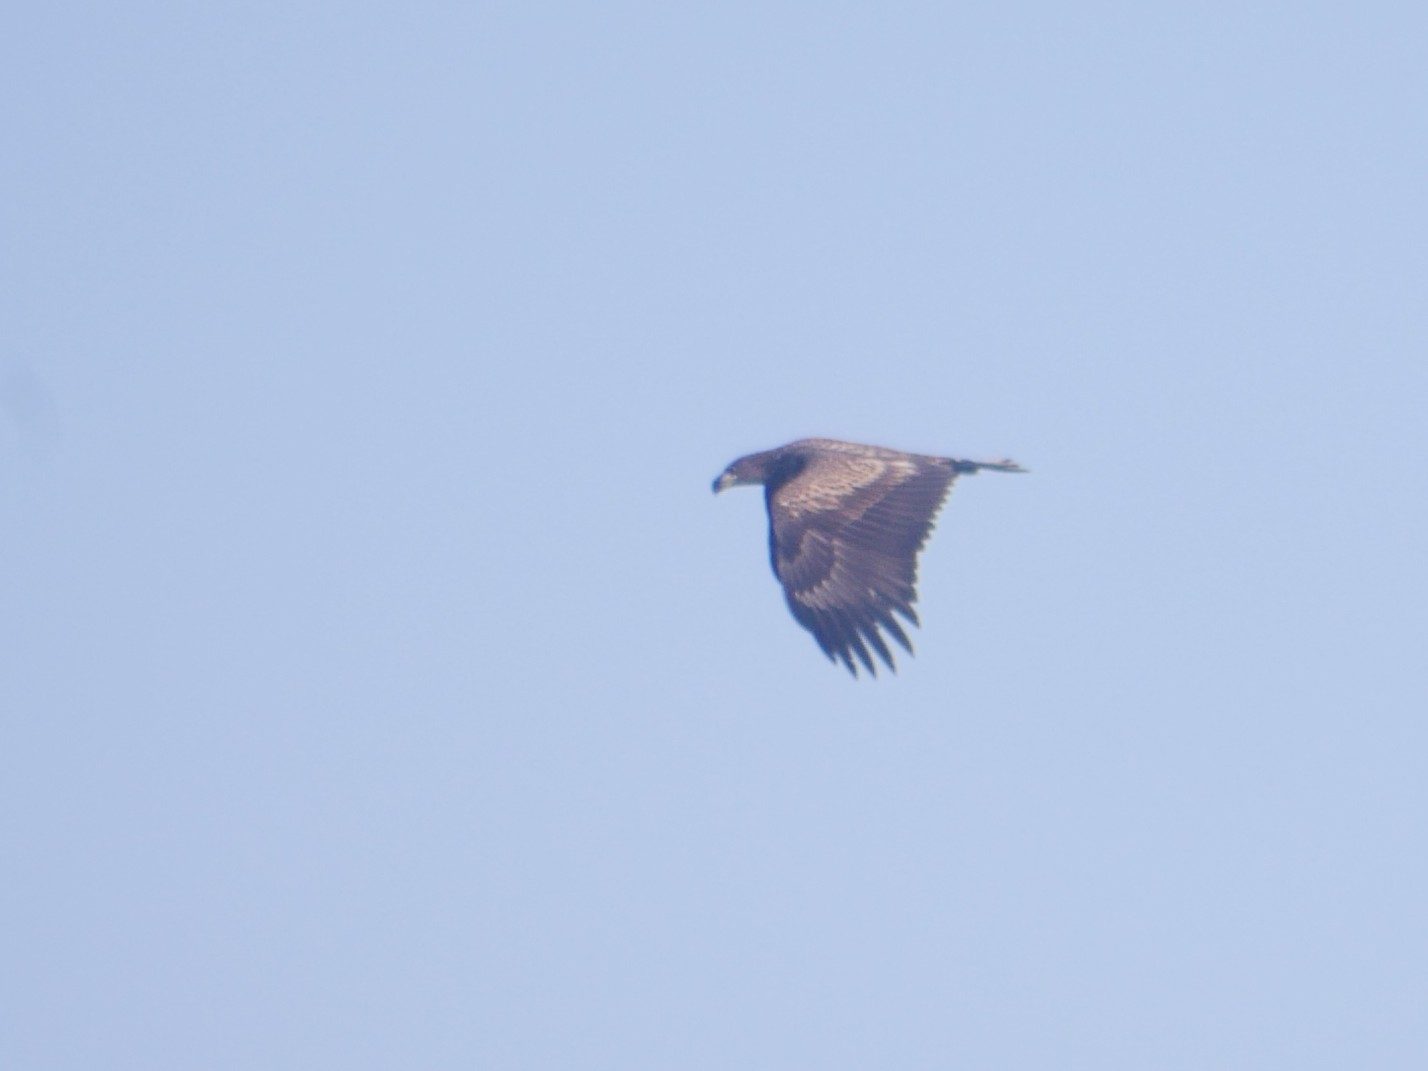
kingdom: Animalia
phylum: Chordata
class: Aves
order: Accipitriformes
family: Accipitridae
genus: Haliaeetus
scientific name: Haliaeetus albicilla
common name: White-tailed eagle
